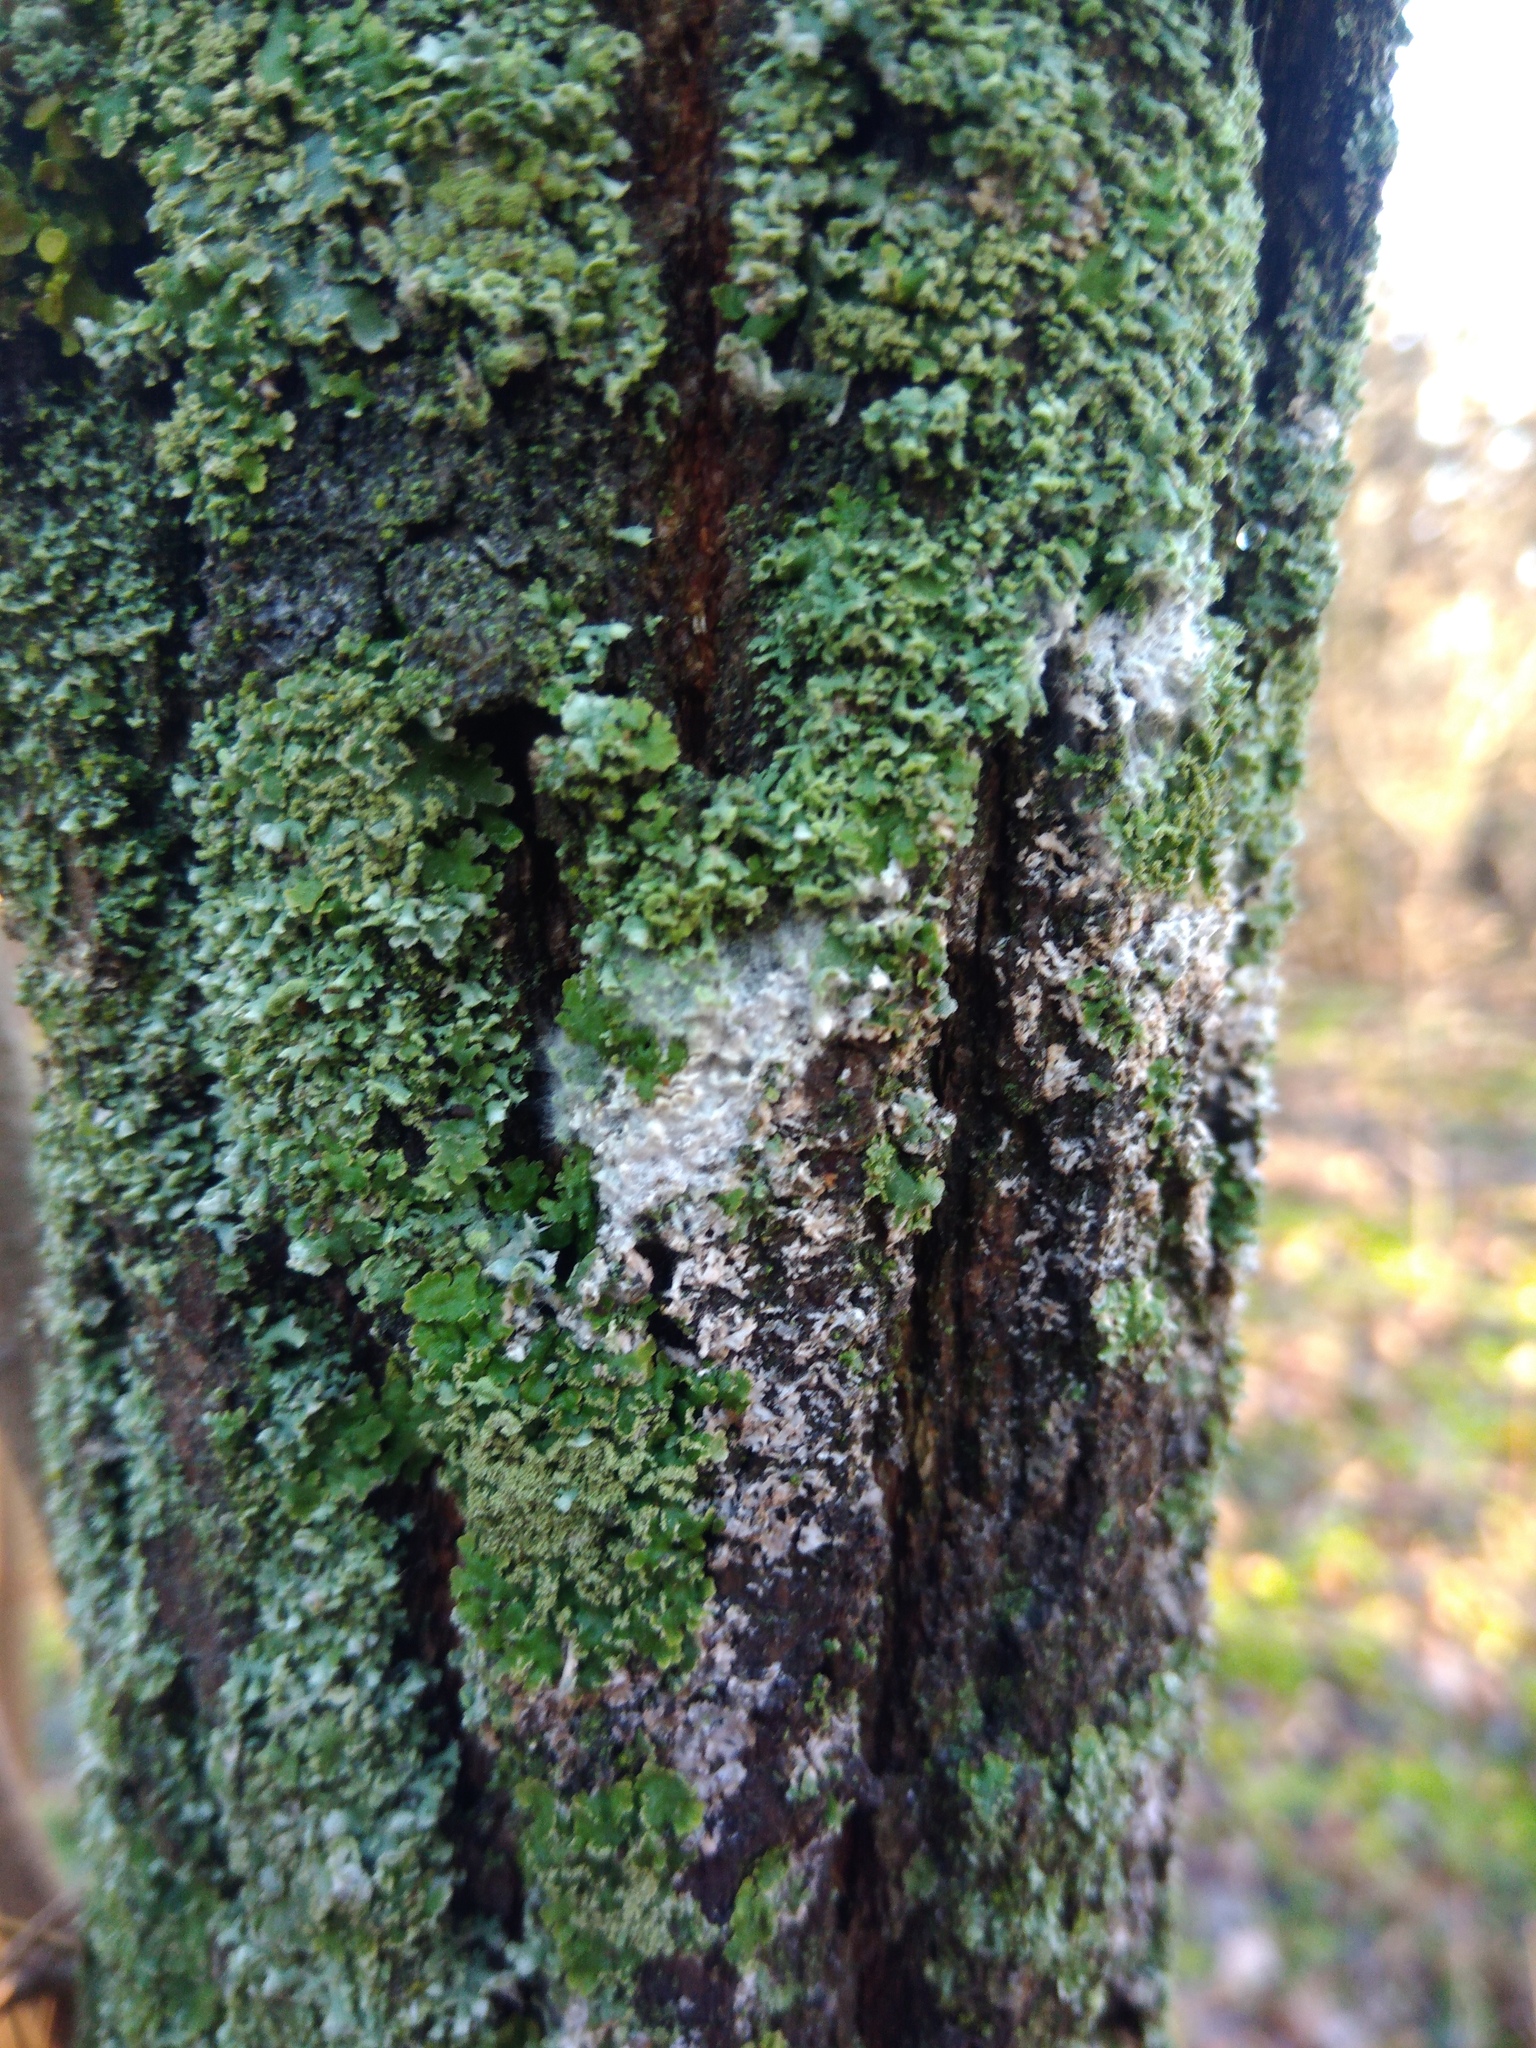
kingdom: Fungi
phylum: Basidiomycota
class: Agaricomycetes
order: Atheliales
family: Atheliaceae
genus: Athelia
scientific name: Athelia arachnoidea
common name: Candelabra duster
